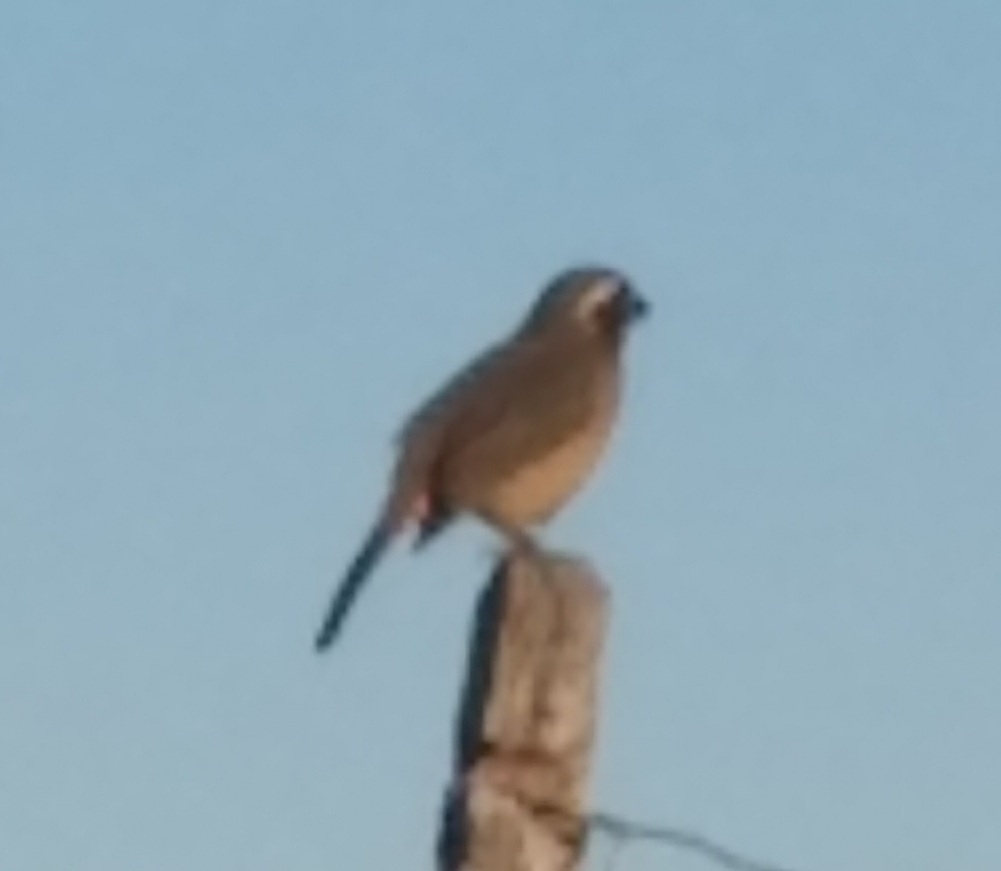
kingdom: Animalia
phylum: Chordata
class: Aves
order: Passeriformes
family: Thraupidae
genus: Saltator
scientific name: Saltator aurantiirostris
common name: Golden-billed saltator
